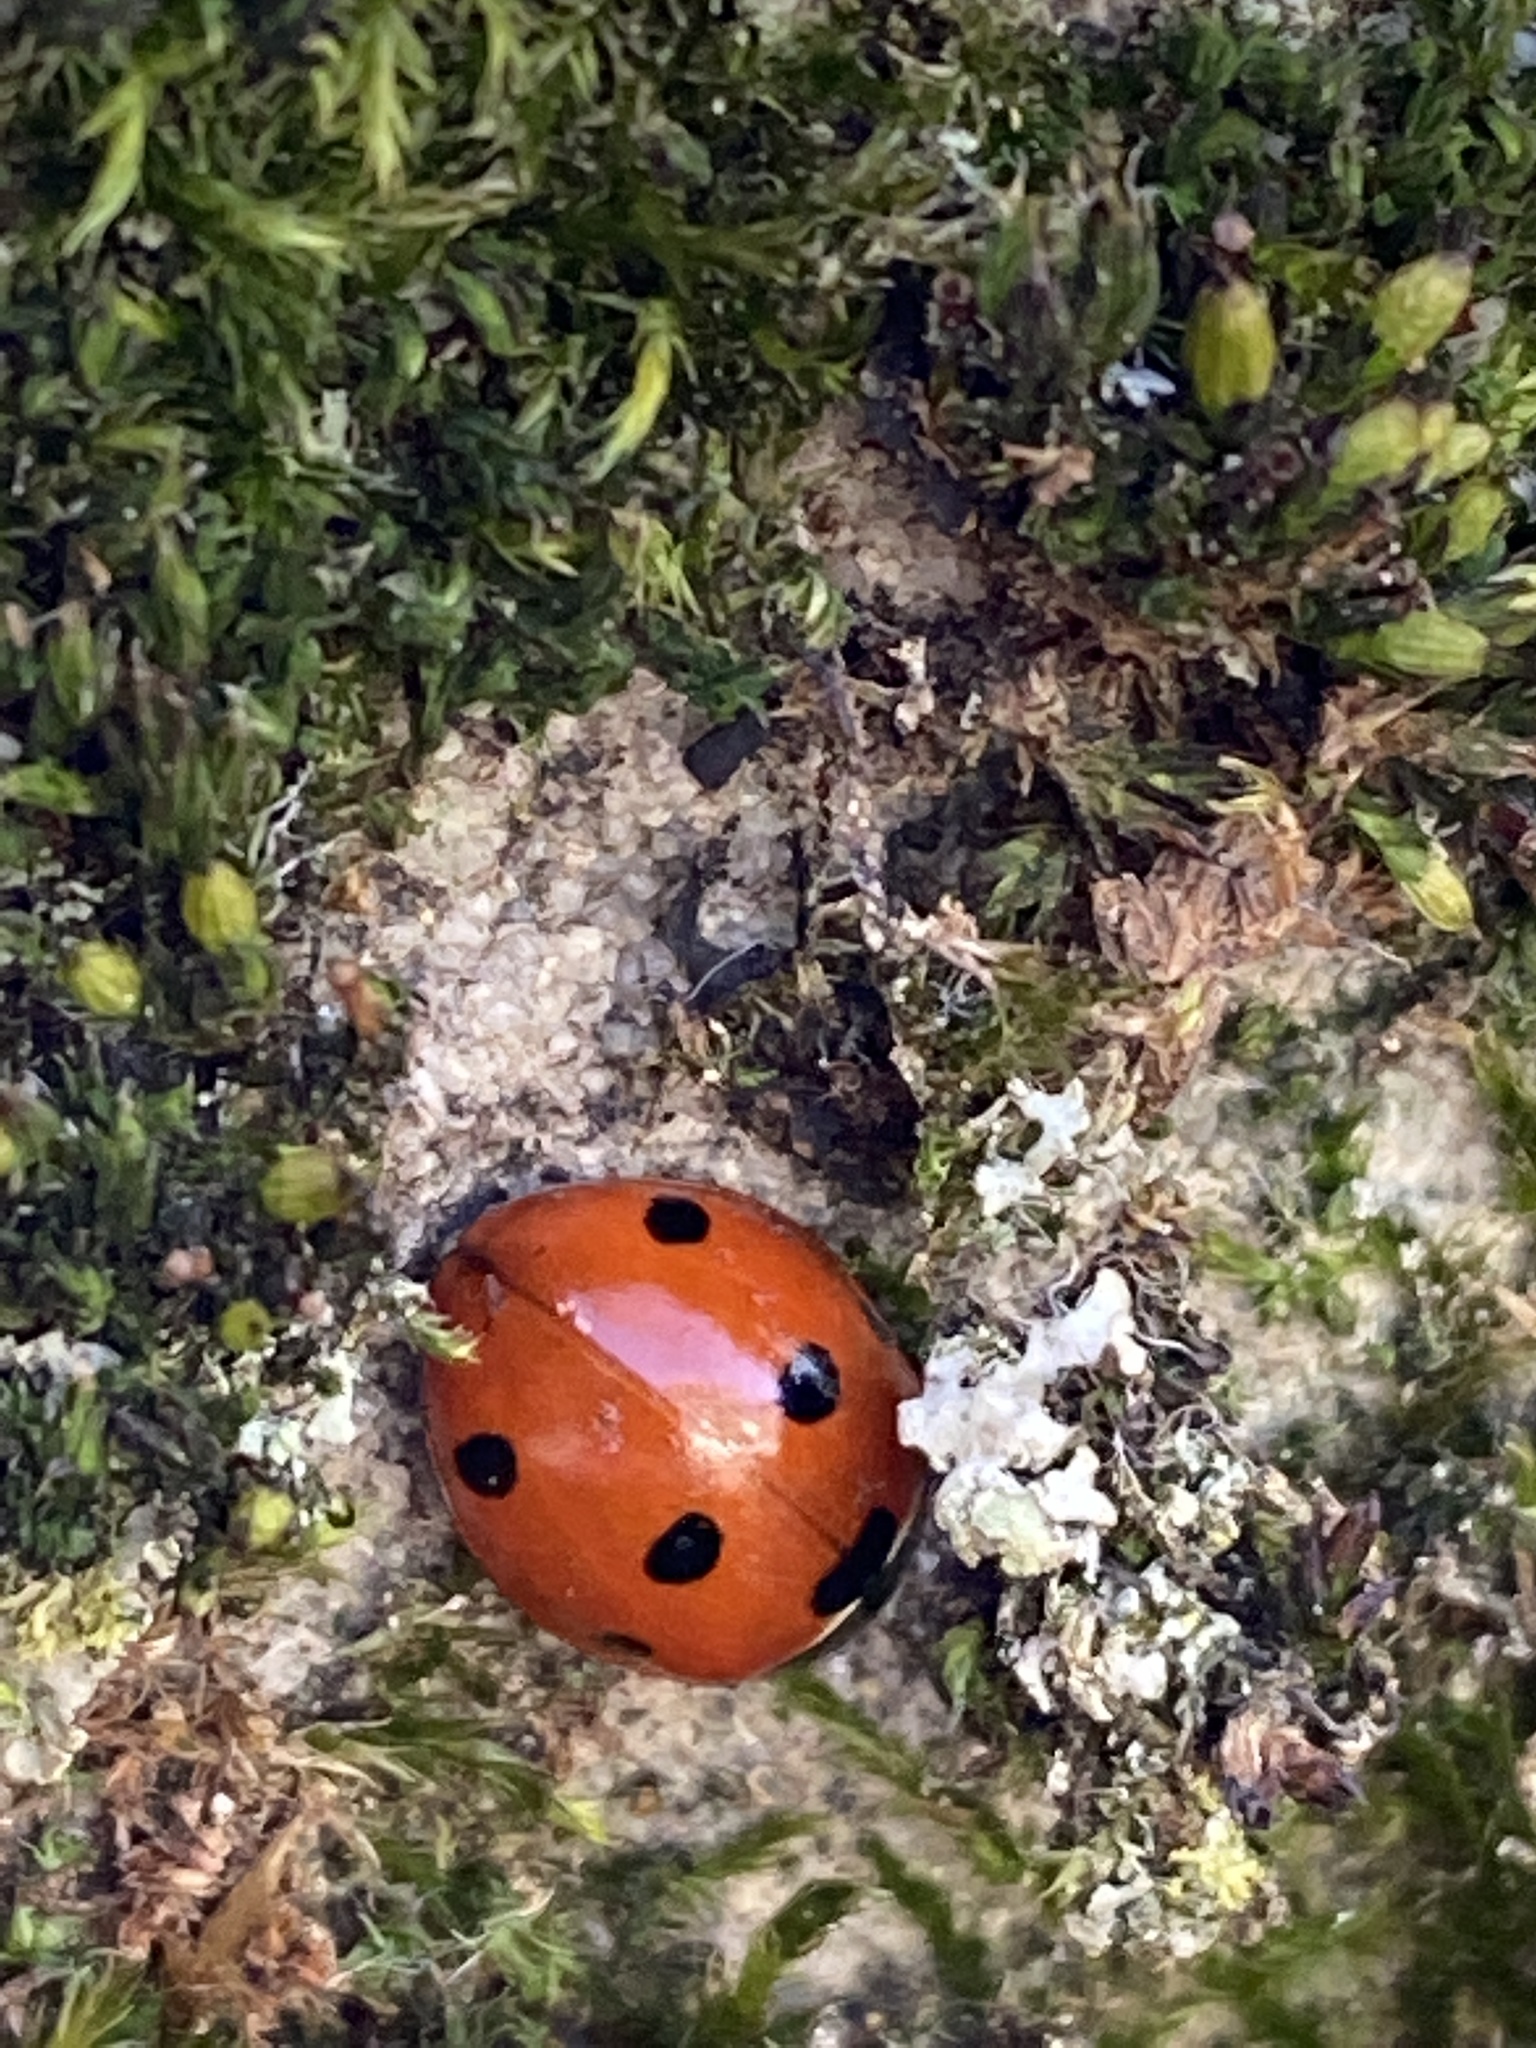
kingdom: Animalia
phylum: Arthropoda
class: Insecta
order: Coleoptera
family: Coccinellidae
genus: Coccinella
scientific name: Coccinella septempunctata
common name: Sevenspotted lady beetle
